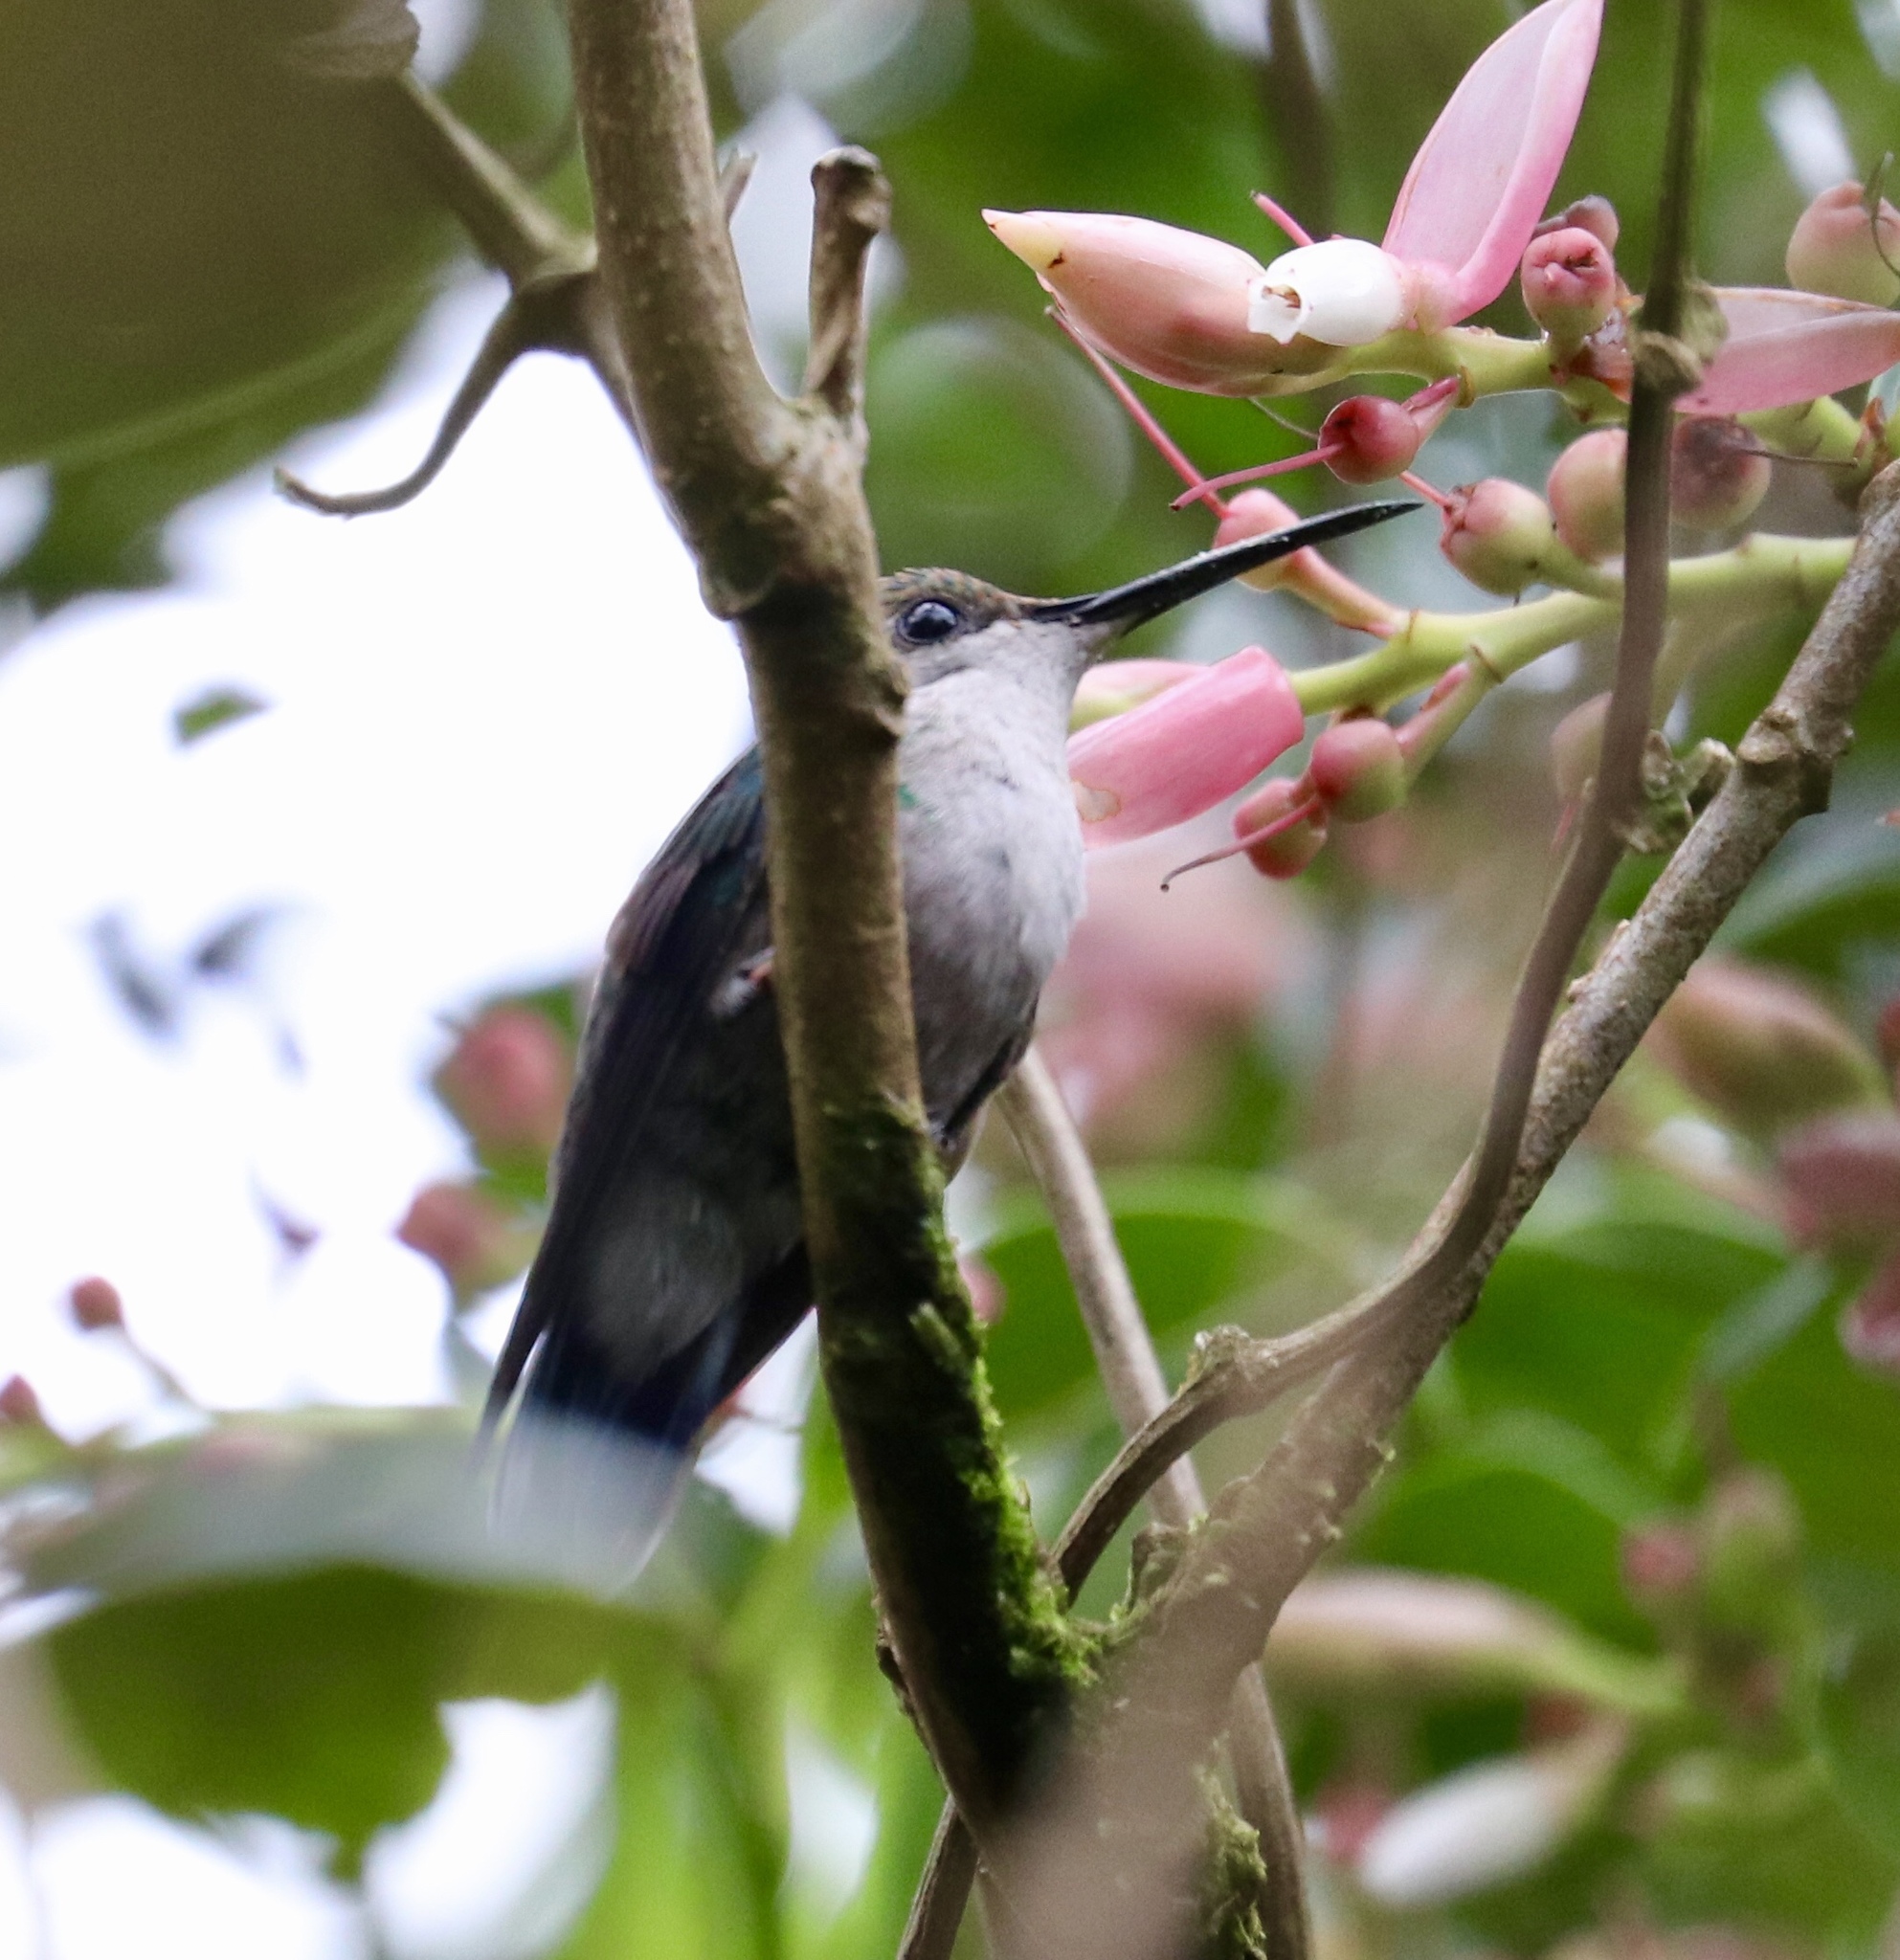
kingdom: Animalia
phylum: Chordata
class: Aves
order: Apodiformes
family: Trochilidae
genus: Thalurania
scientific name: Thalurania colombica
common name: Crowned woodnymph
